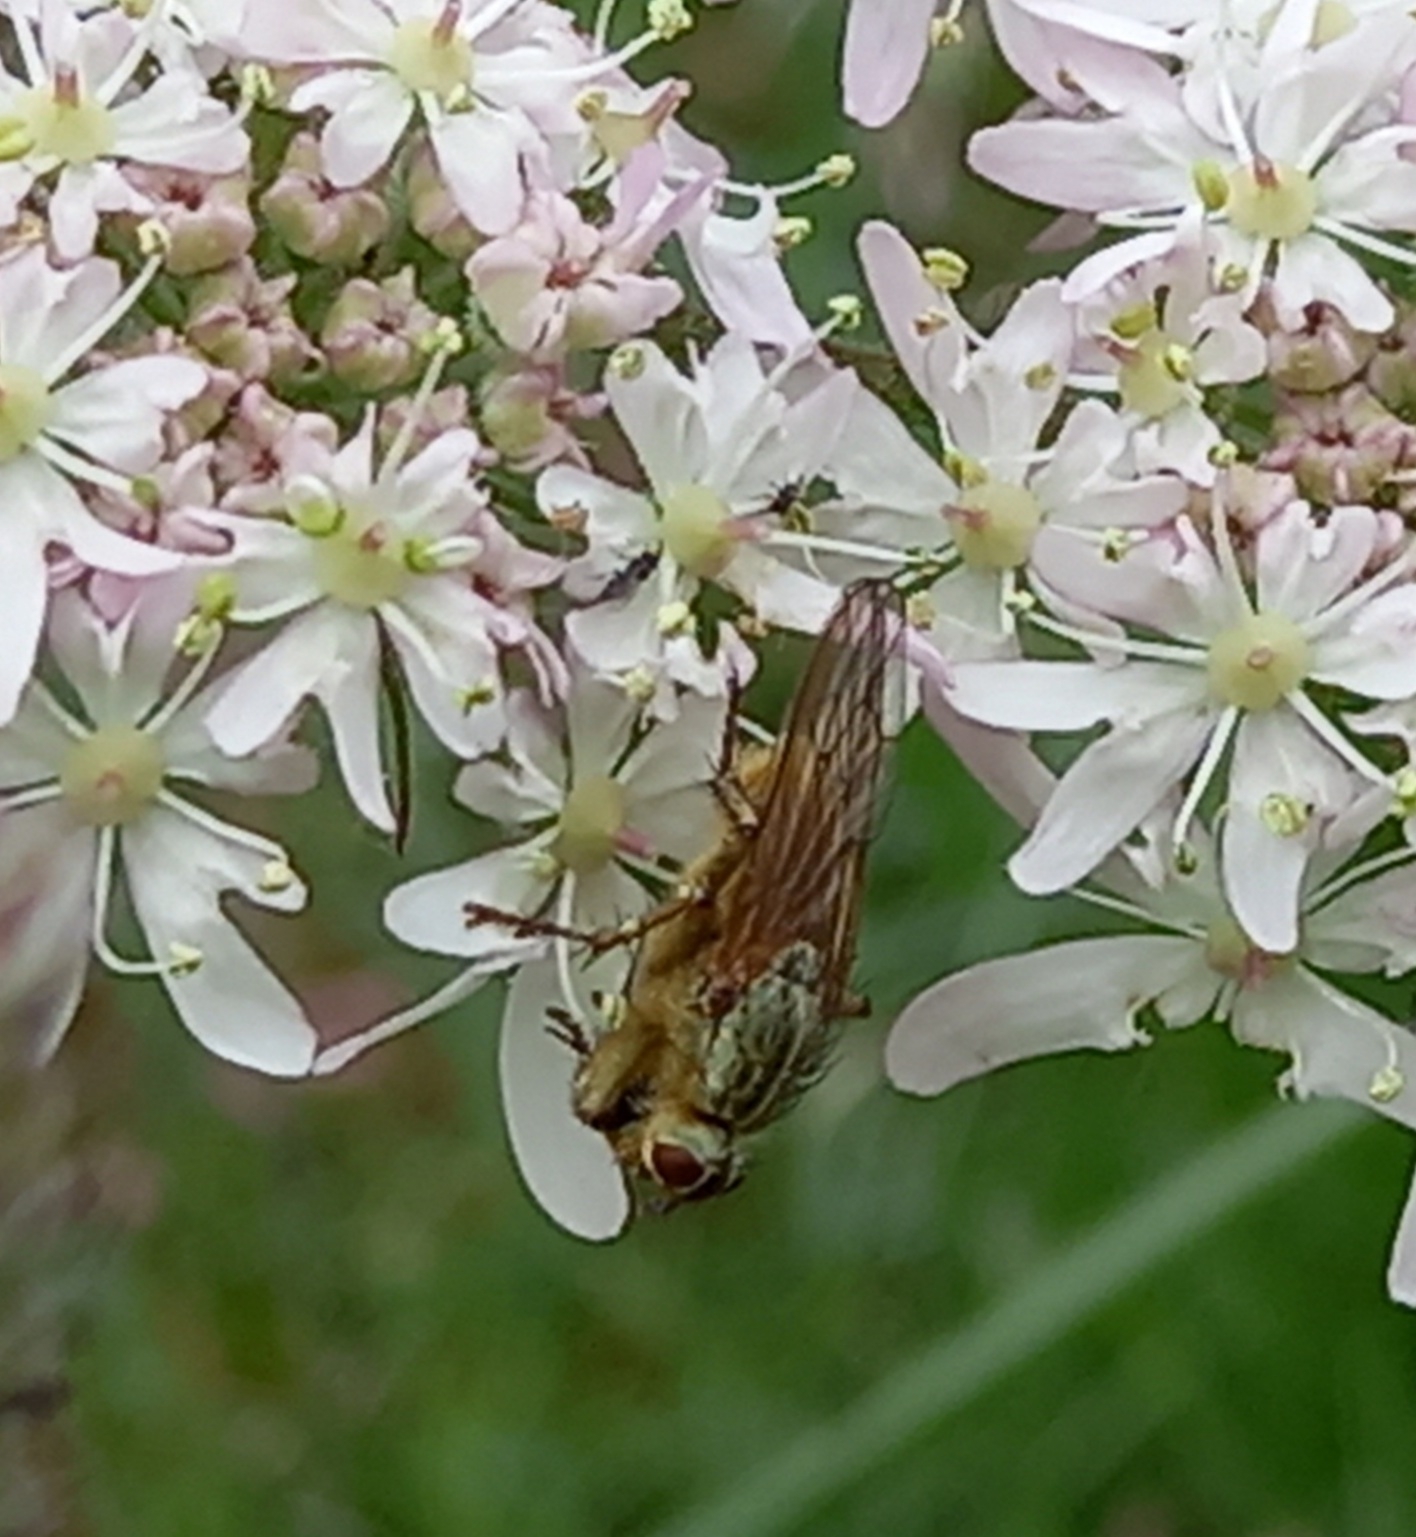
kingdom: Animalia
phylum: Arthropoda
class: Insecta
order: Diptera
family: Scathophagidae
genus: Scathophaga
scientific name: Scathophaga stercoraria
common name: Yellow dung fly
